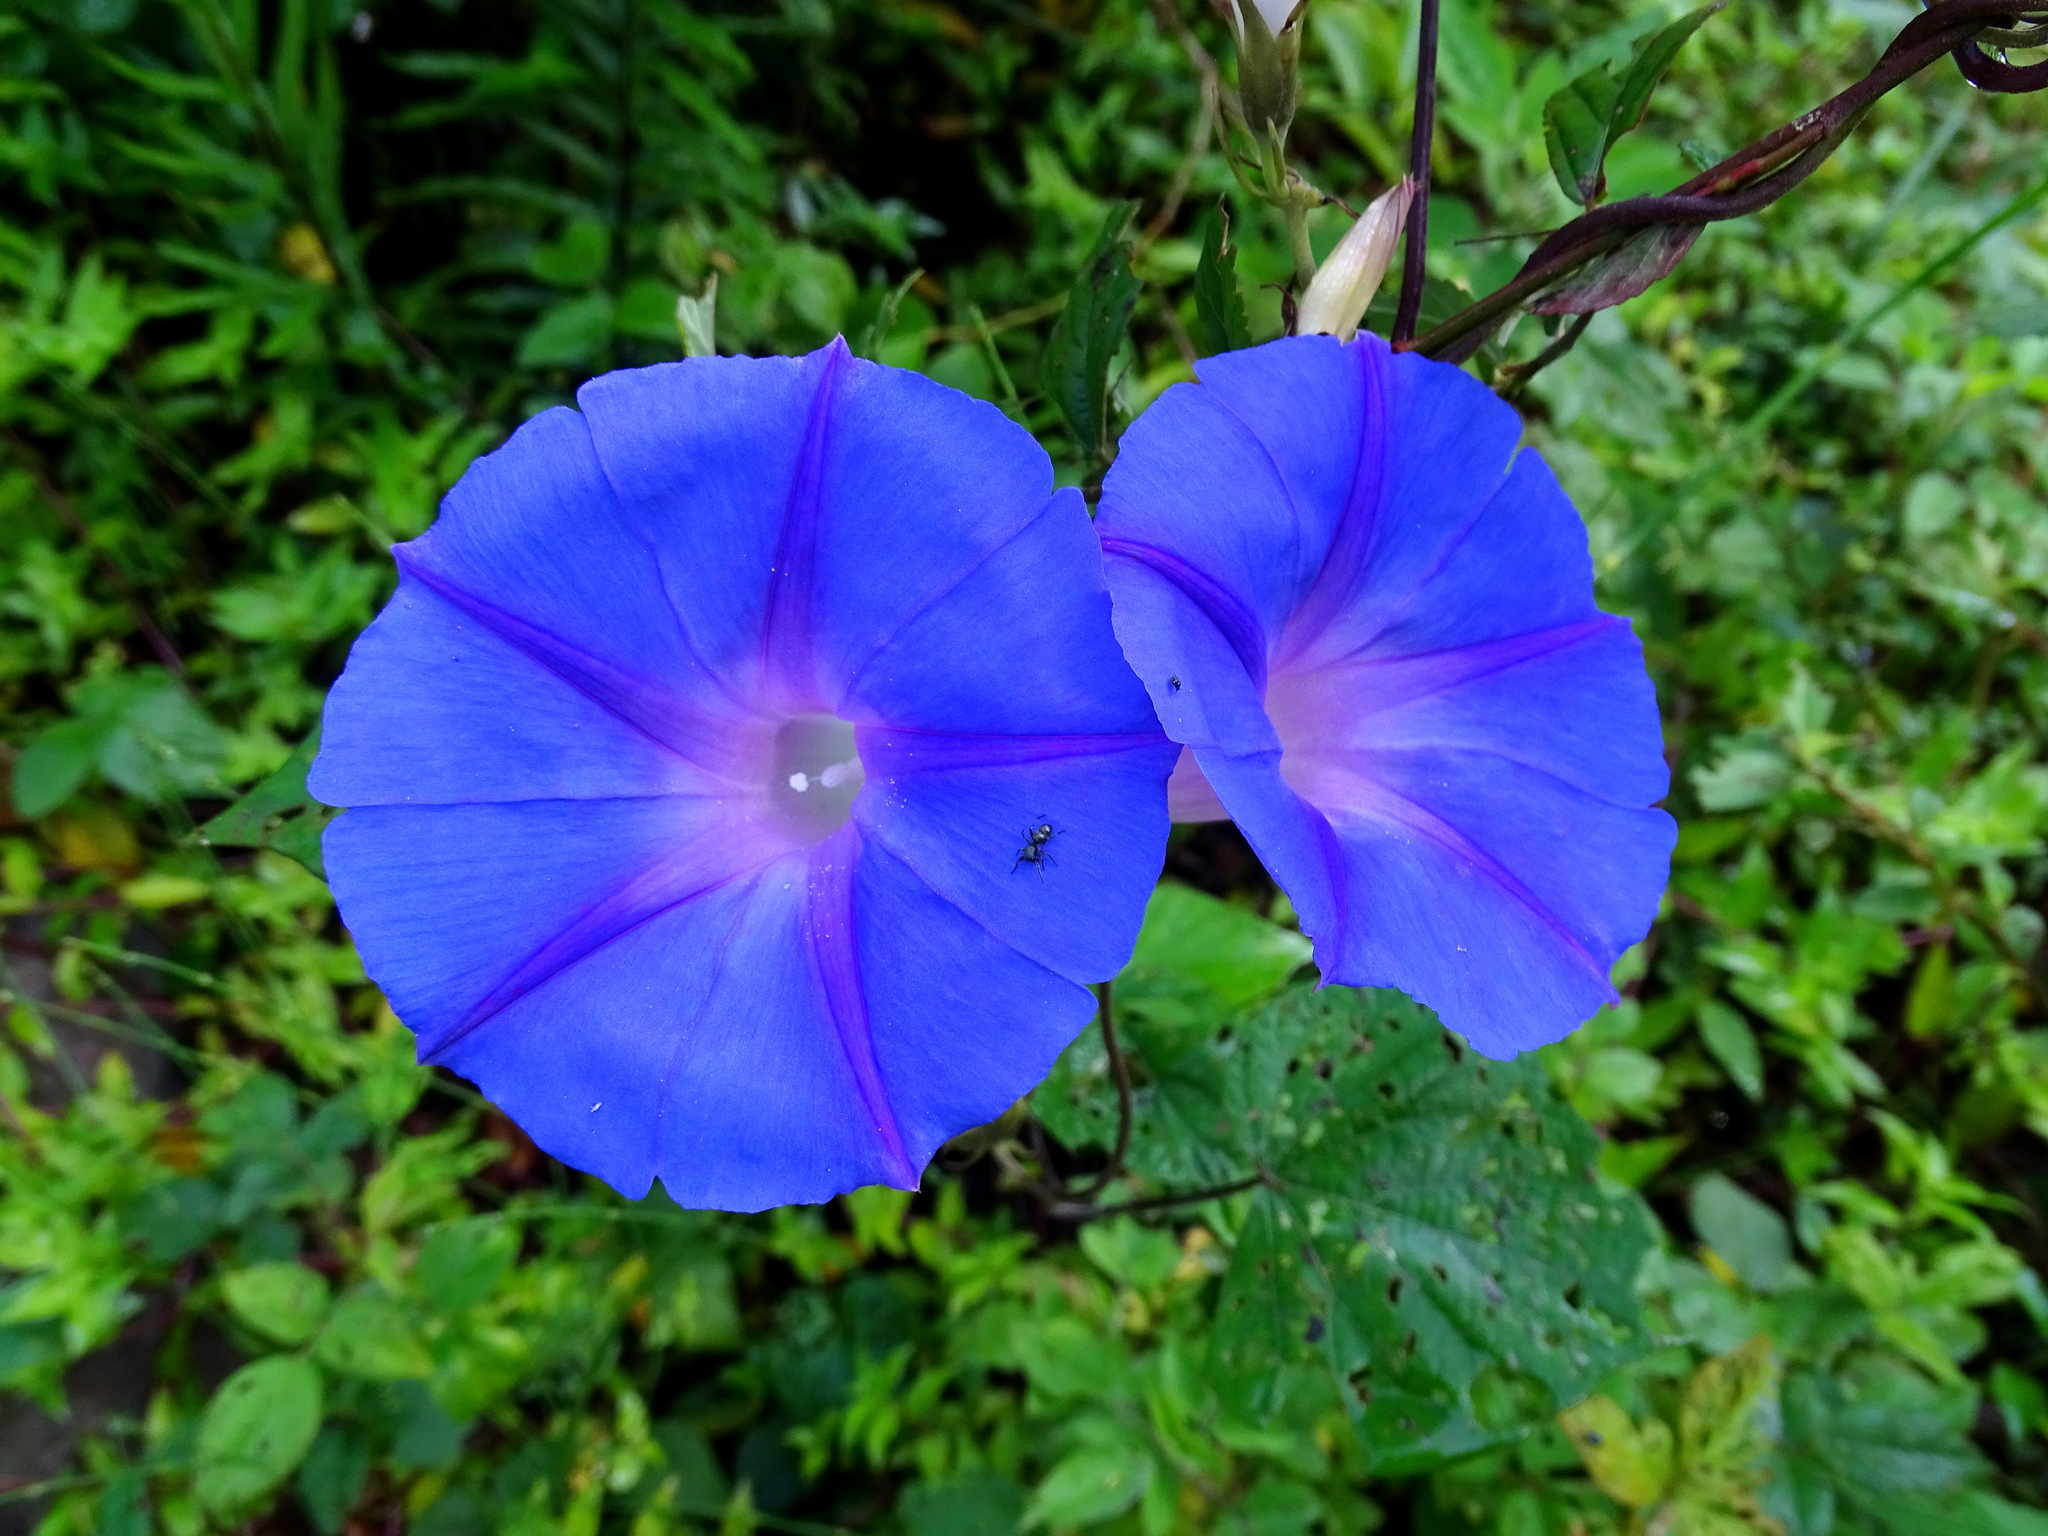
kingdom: Plantae
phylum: Tracheophyta
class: Magnoliopsida
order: Solanales
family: Convolvulaceae
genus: Ipomoea
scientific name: Ipomoea indica
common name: Blue dawnflower
